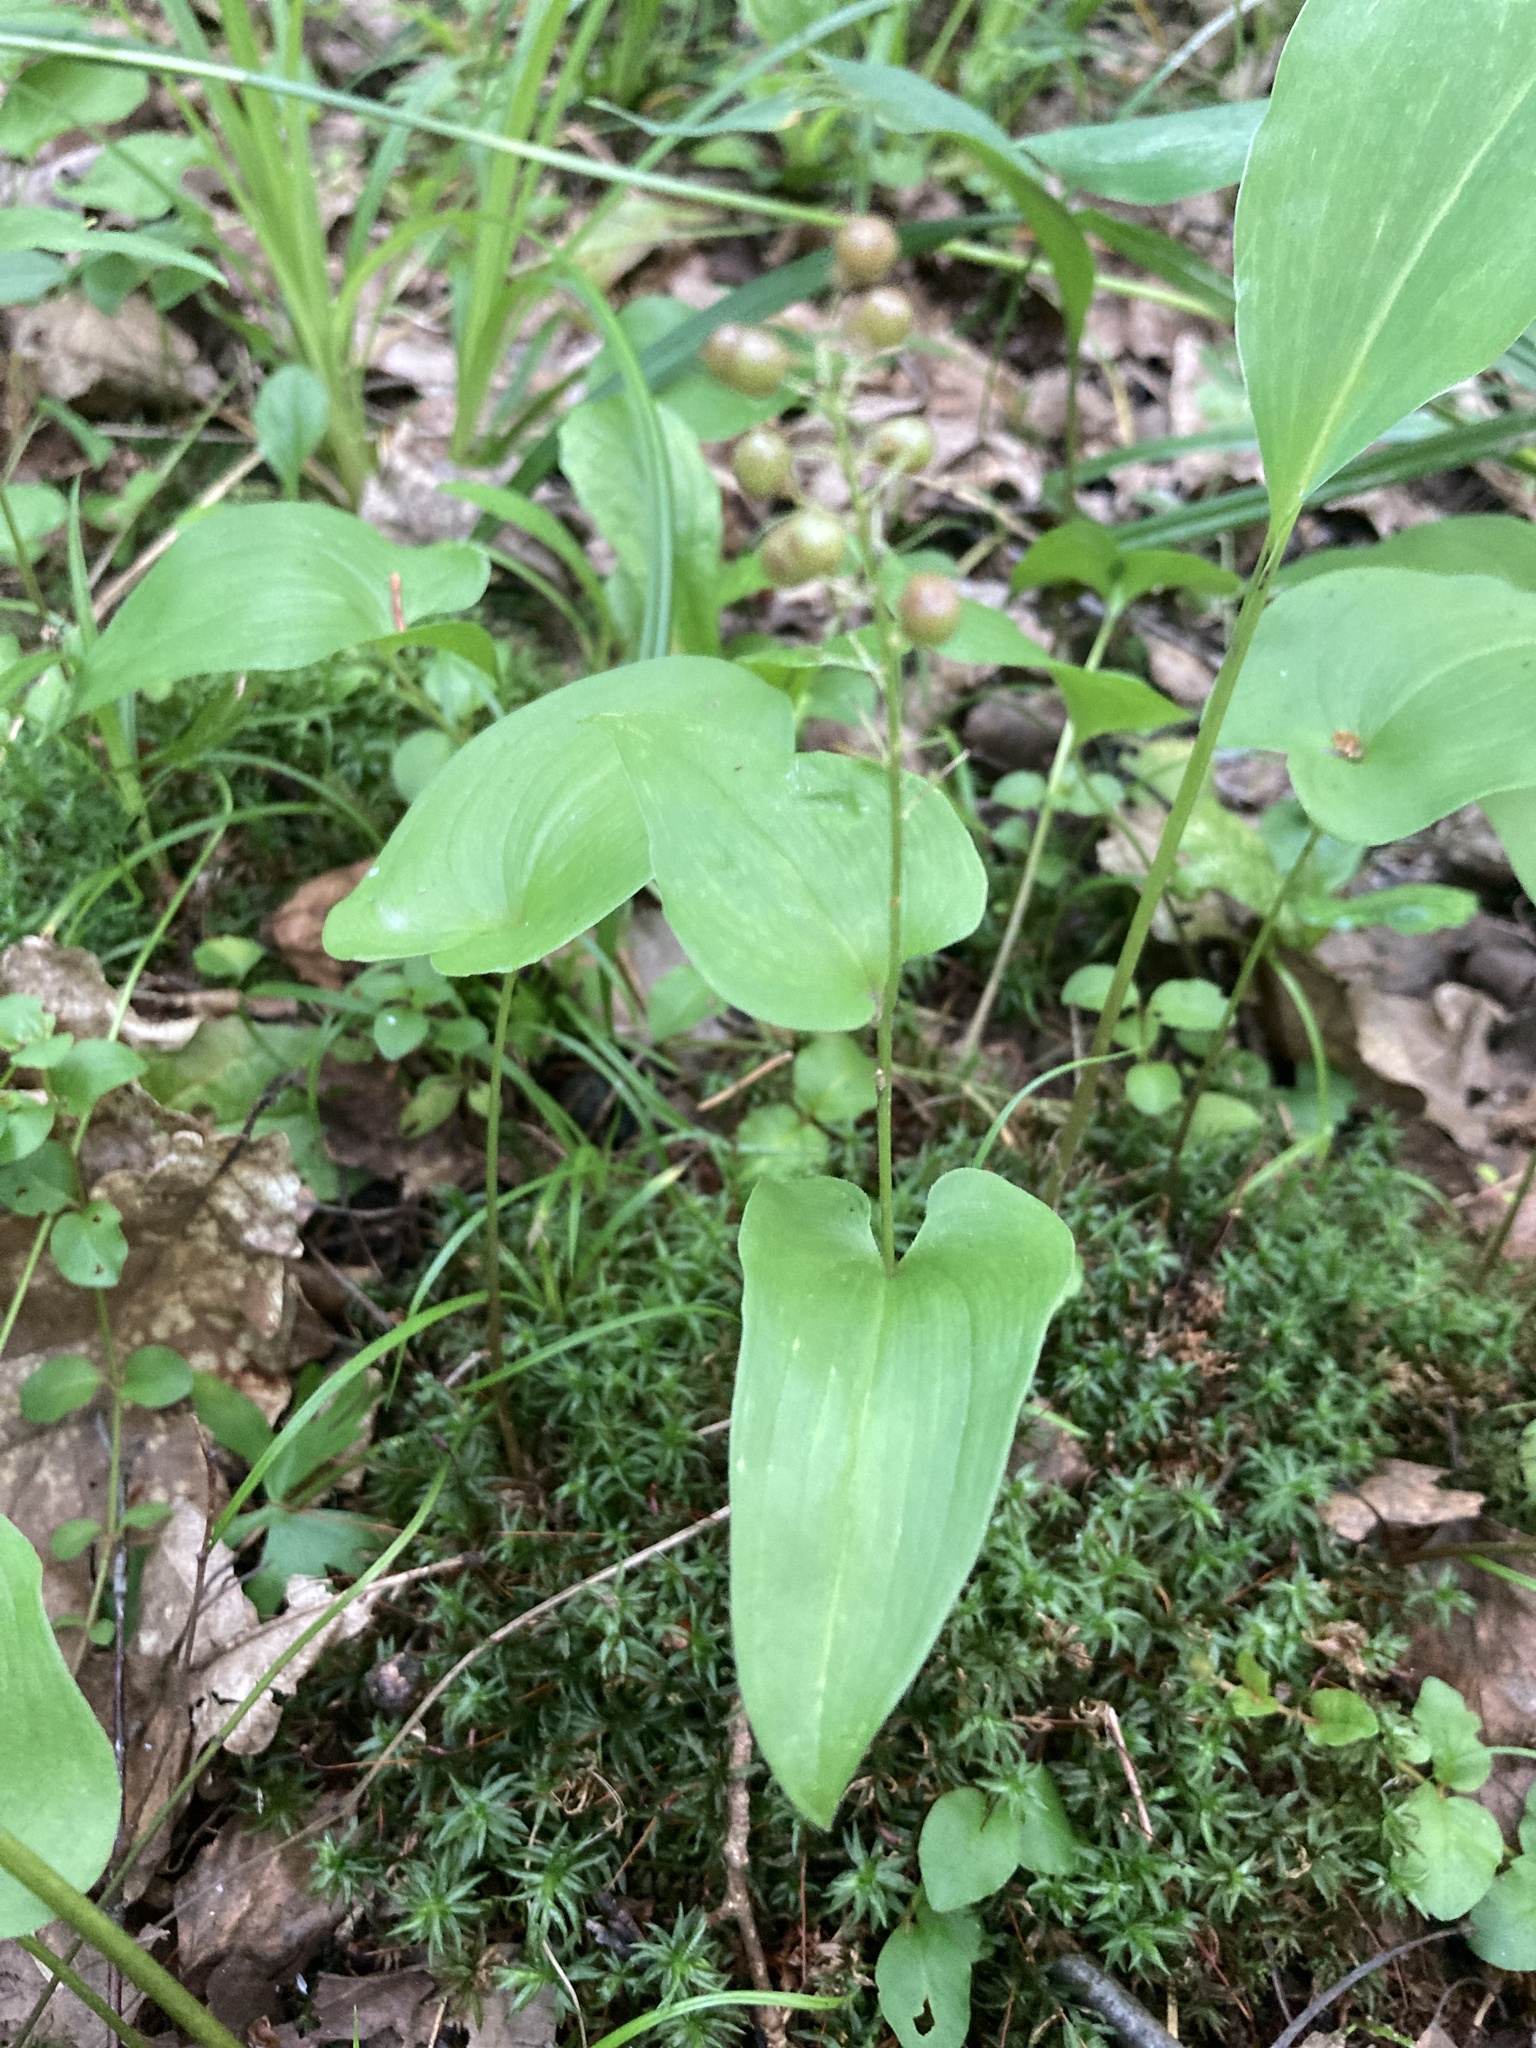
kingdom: Plantae
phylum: Tracheophyta
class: Liliopsida
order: Asparagales
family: Asparagaceae
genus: Maianthemum
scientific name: Maianthemum bifolium
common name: May lily
